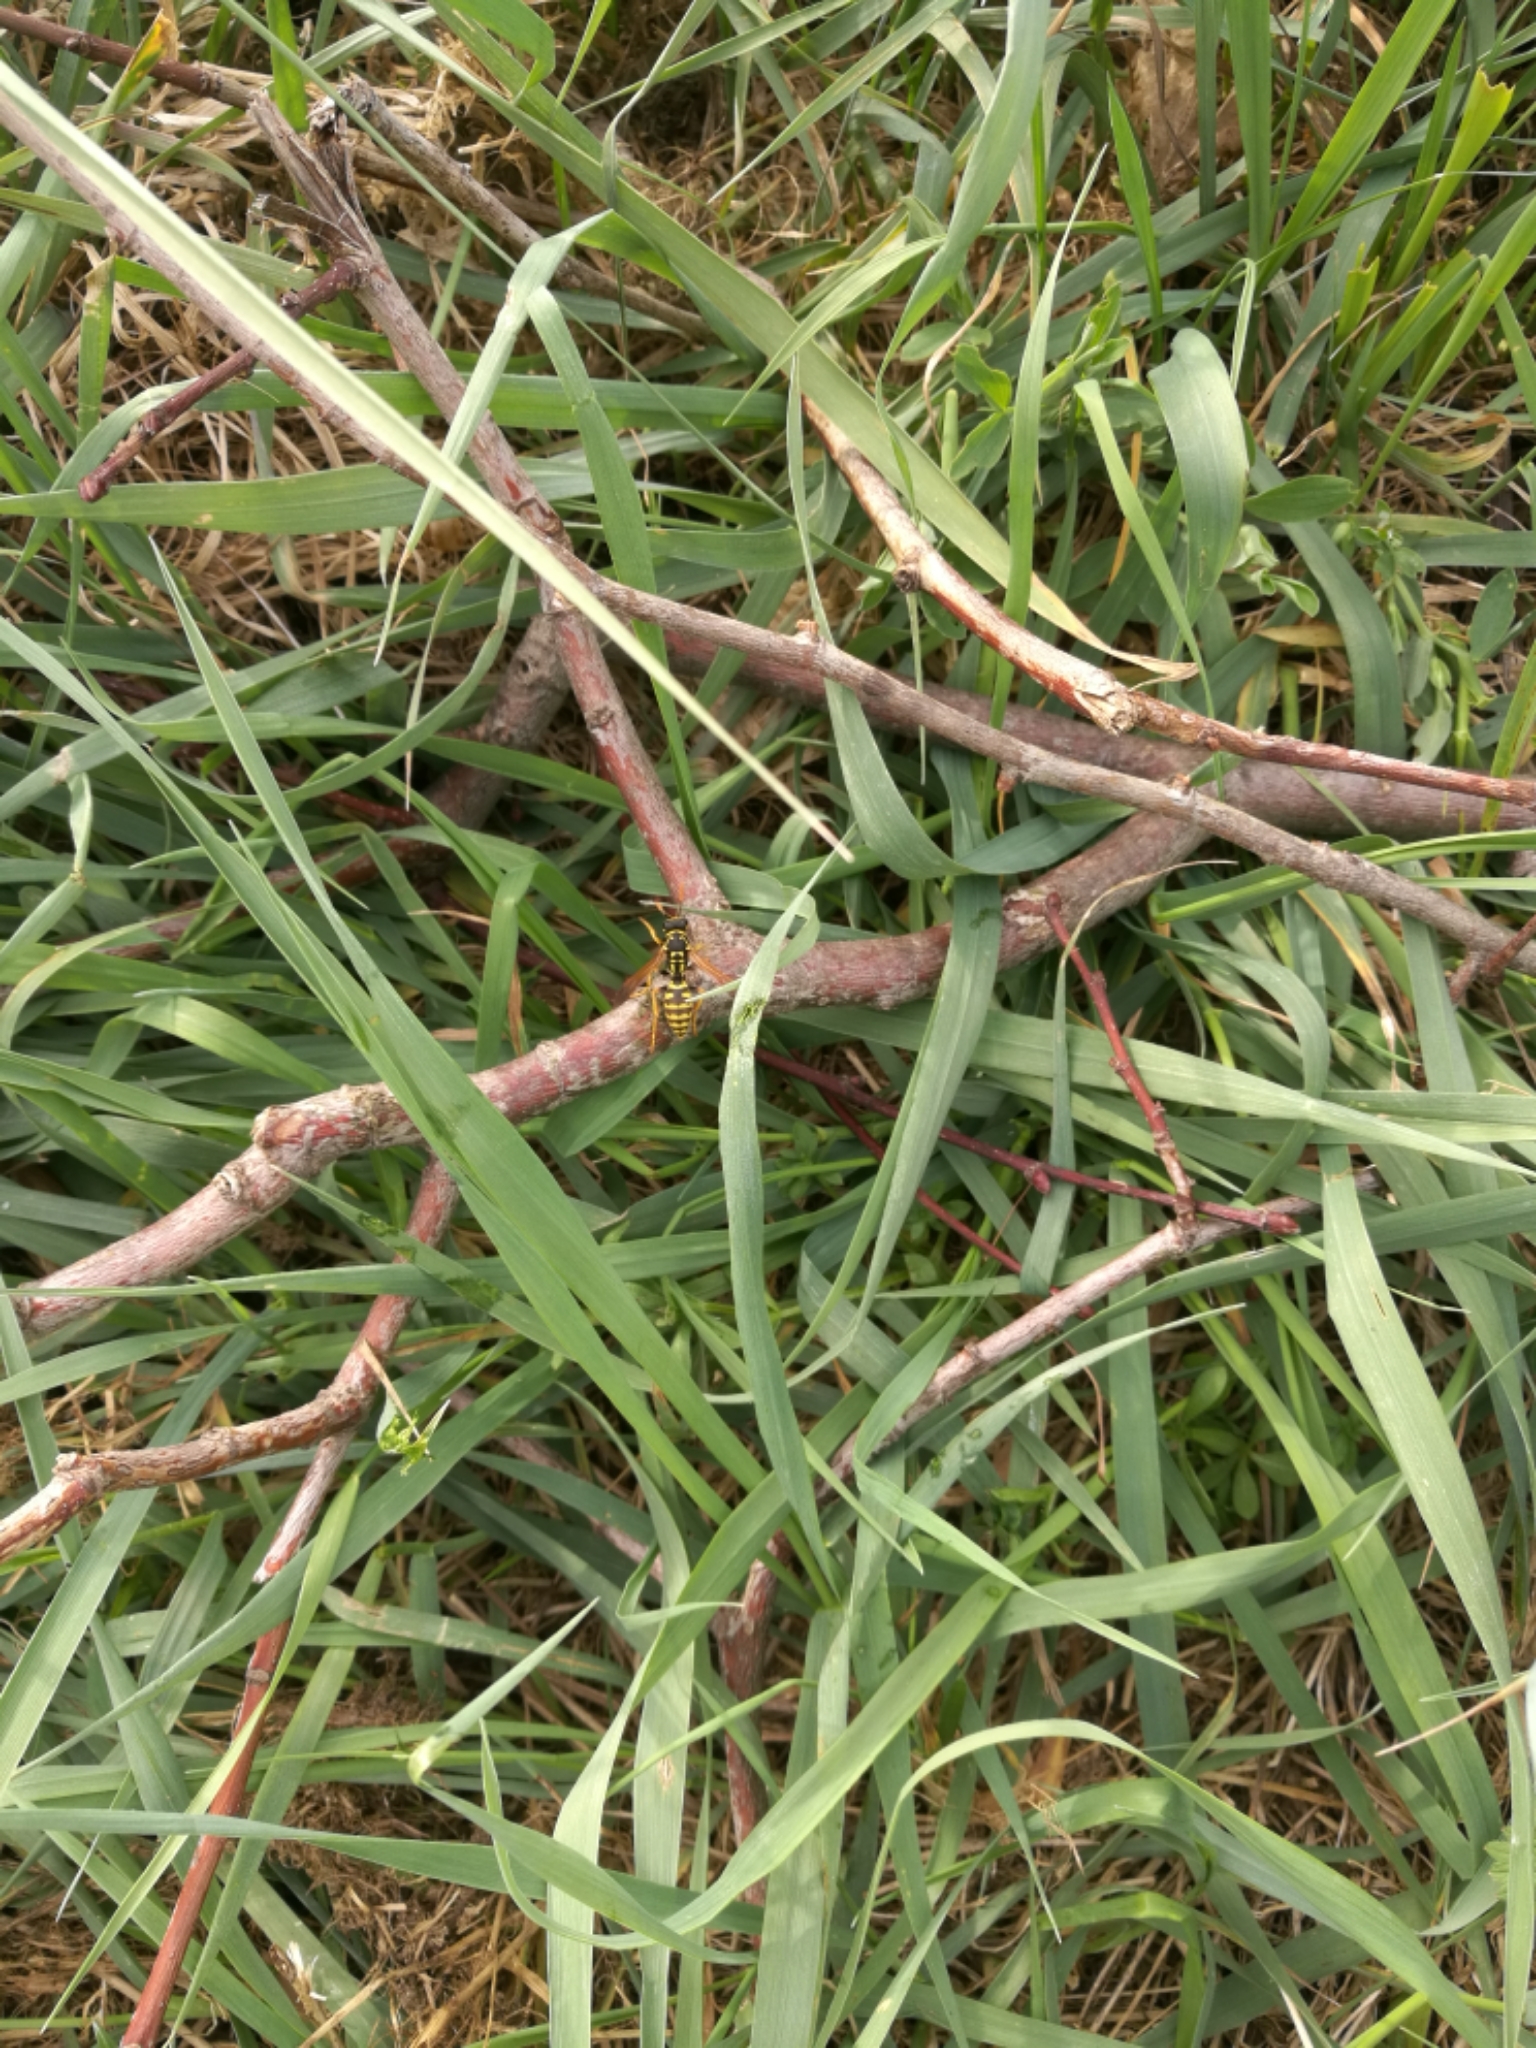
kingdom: Animalia
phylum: Arthropoda
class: Insecta
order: Hymenoptera
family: Eumenidae
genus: Polistes
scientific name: Polistes dominula
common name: Paper wasp
